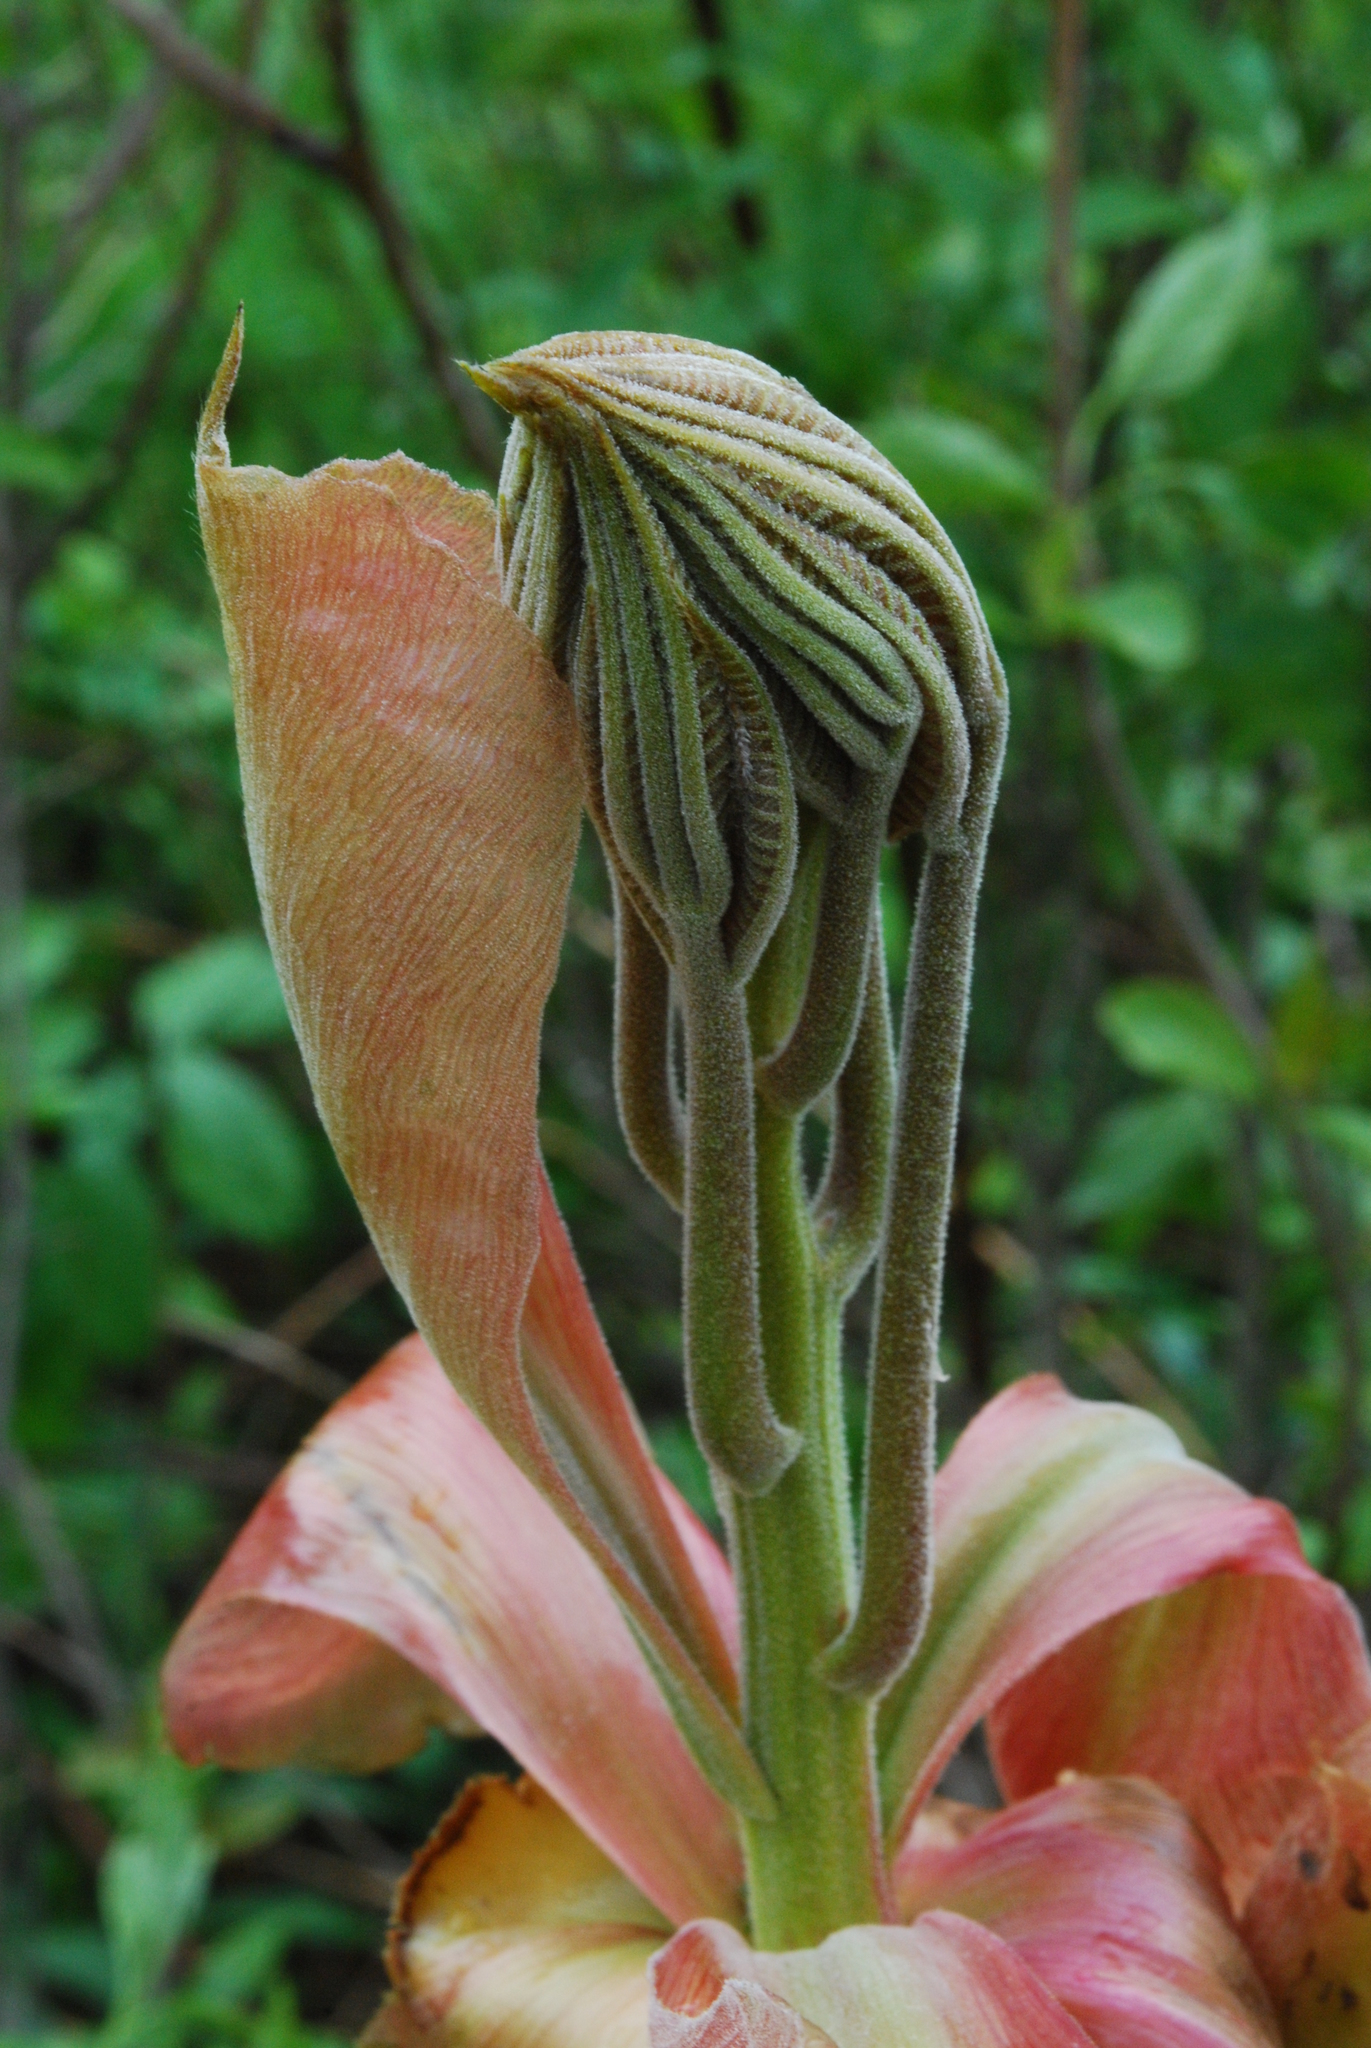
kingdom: Plantae
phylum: Tracheophyta
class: Magnoliopsida
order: Fagales
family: Juglandaceae
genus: Carya
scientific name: Carya ovata
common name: Shagbark hickory
